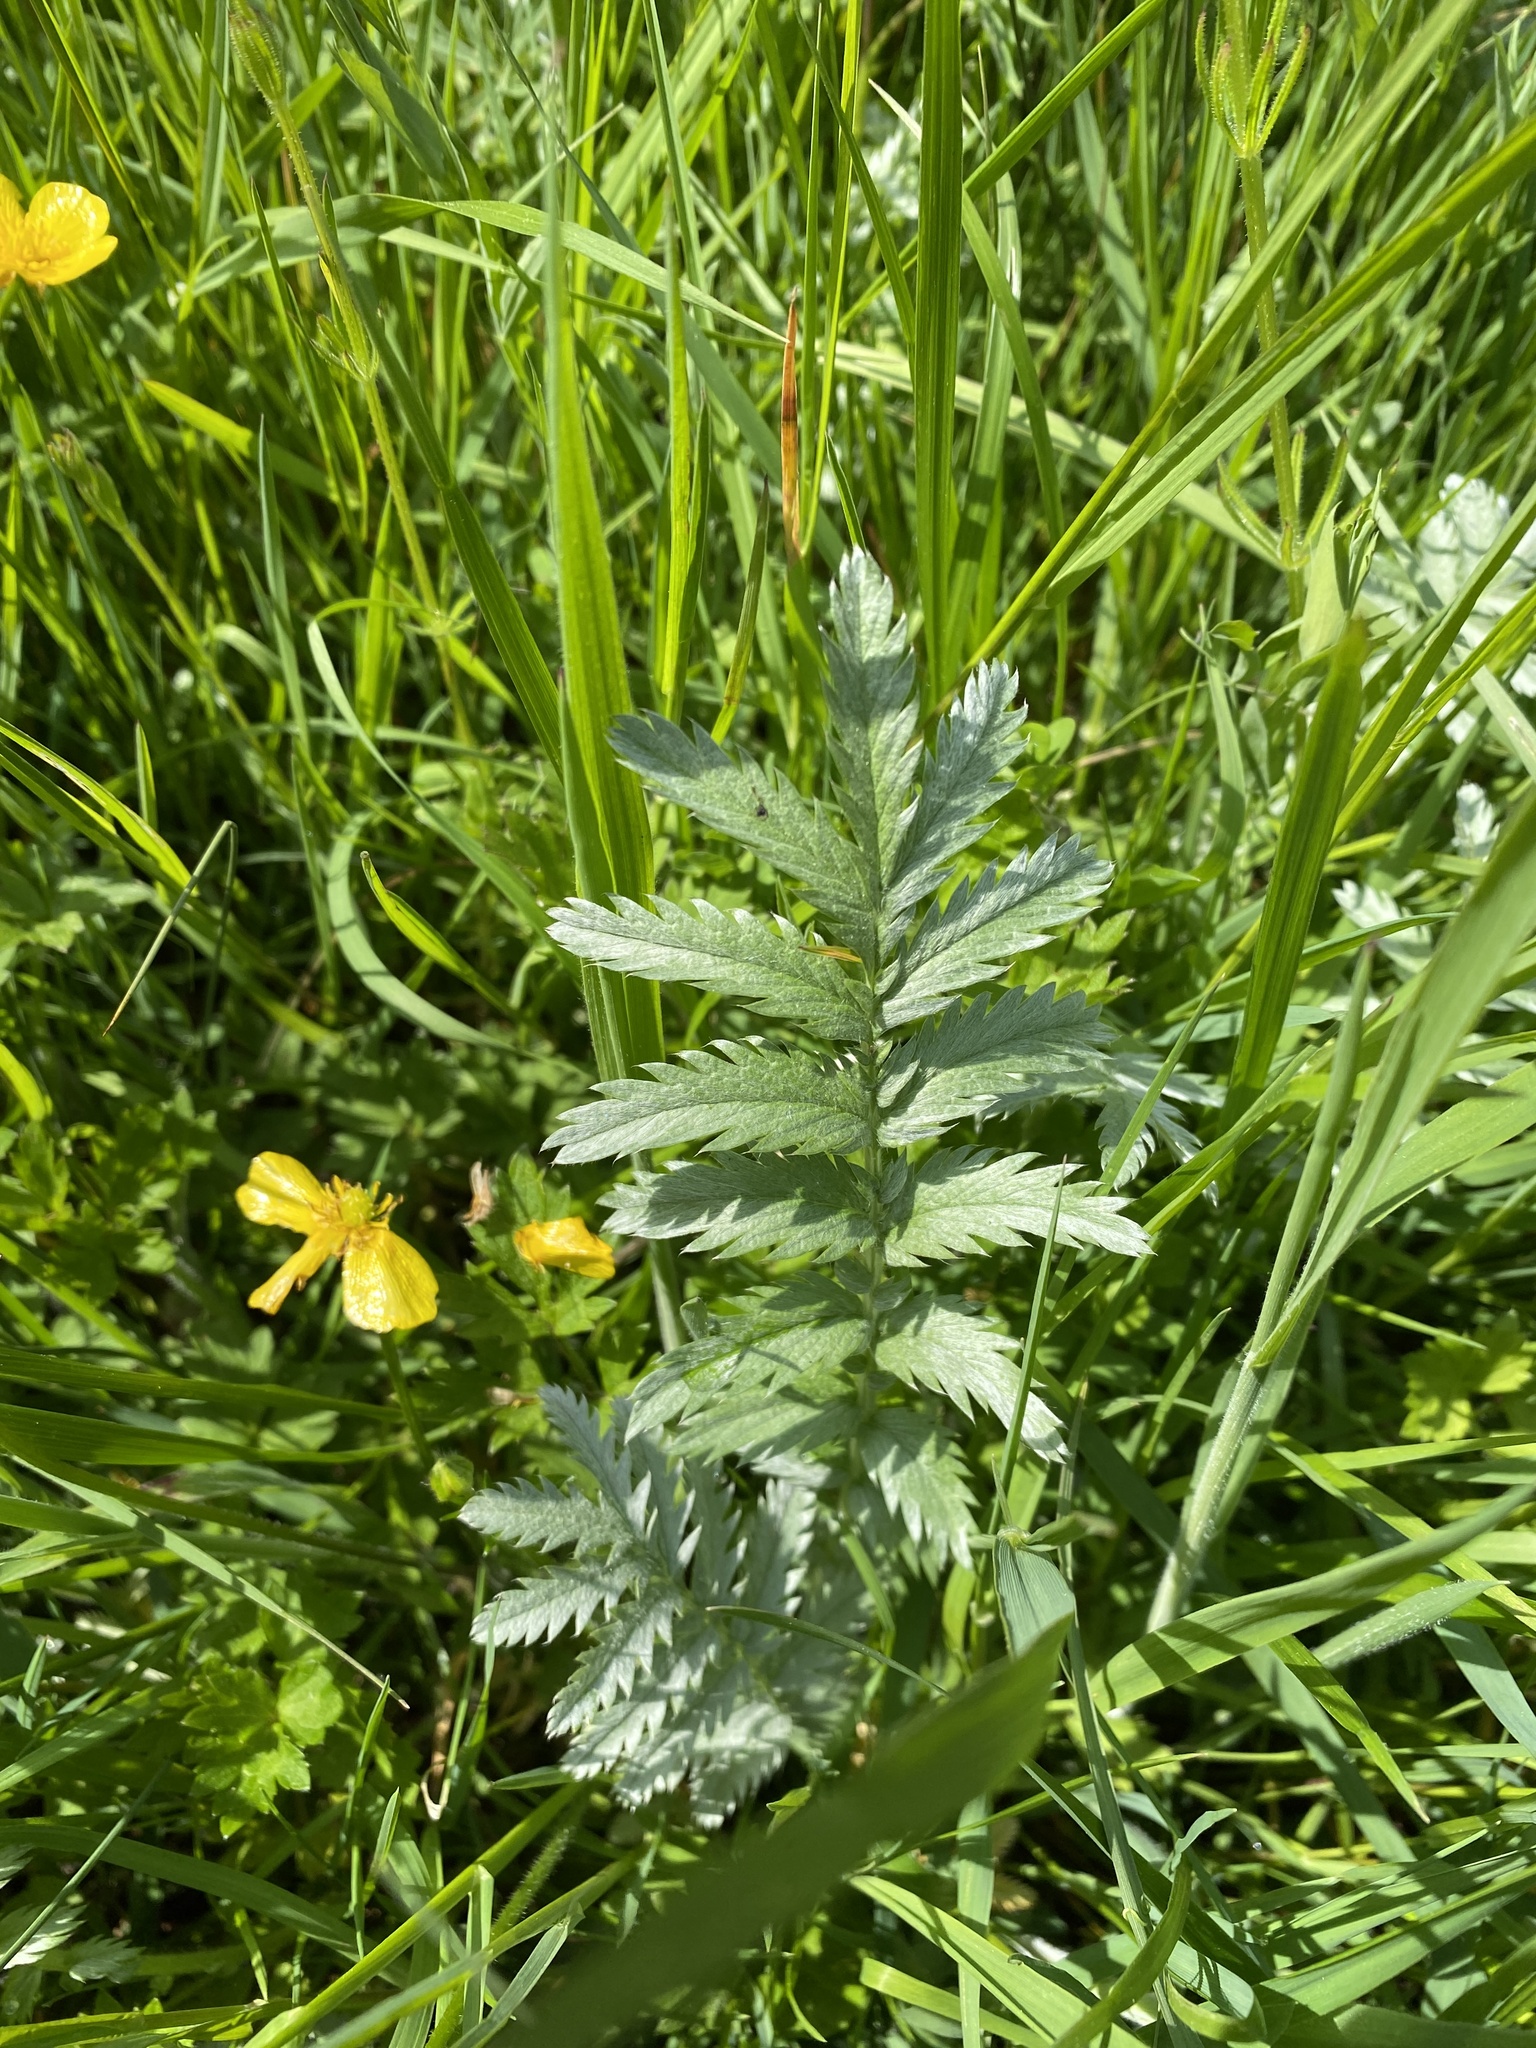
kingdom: Plantae
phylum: Tracheophyta
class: Magnoliopsida
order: Rosales
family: Rosaceae
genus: Argentina
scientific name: Argentina anserina
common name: Common silverweed
